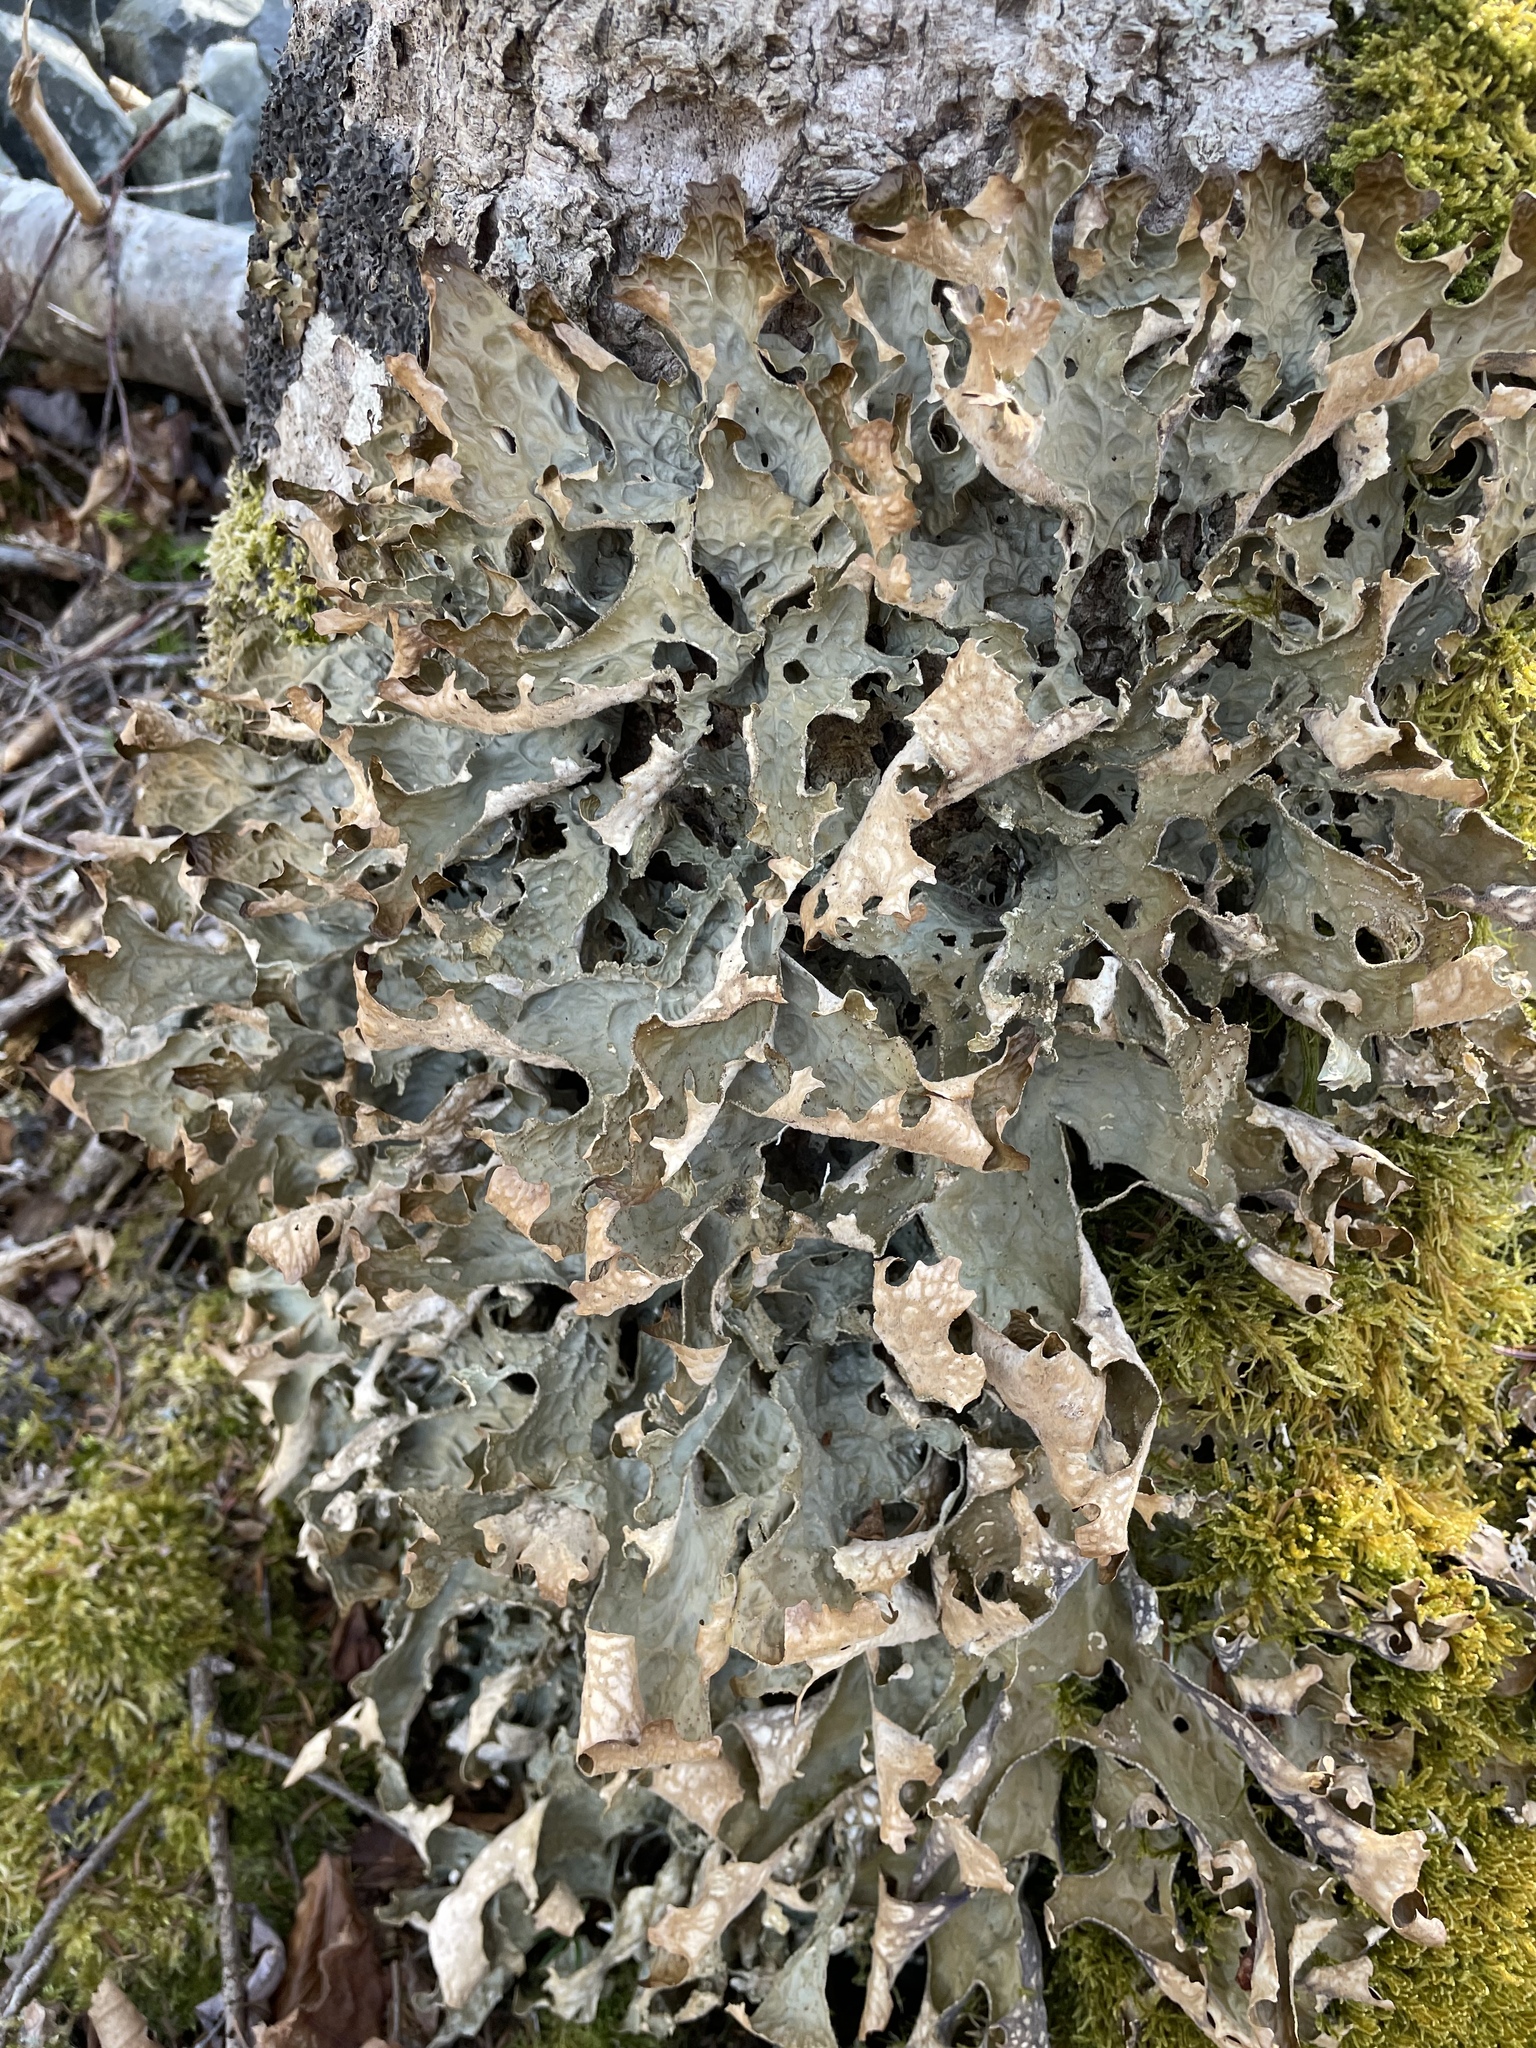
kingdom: Fungi
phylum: Ascomycota
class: Lecanoromycetes
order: Peltigerales
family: Lobariaceae
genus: Lobaria
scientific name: Lobaria pulmonaria
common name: Lungwort
